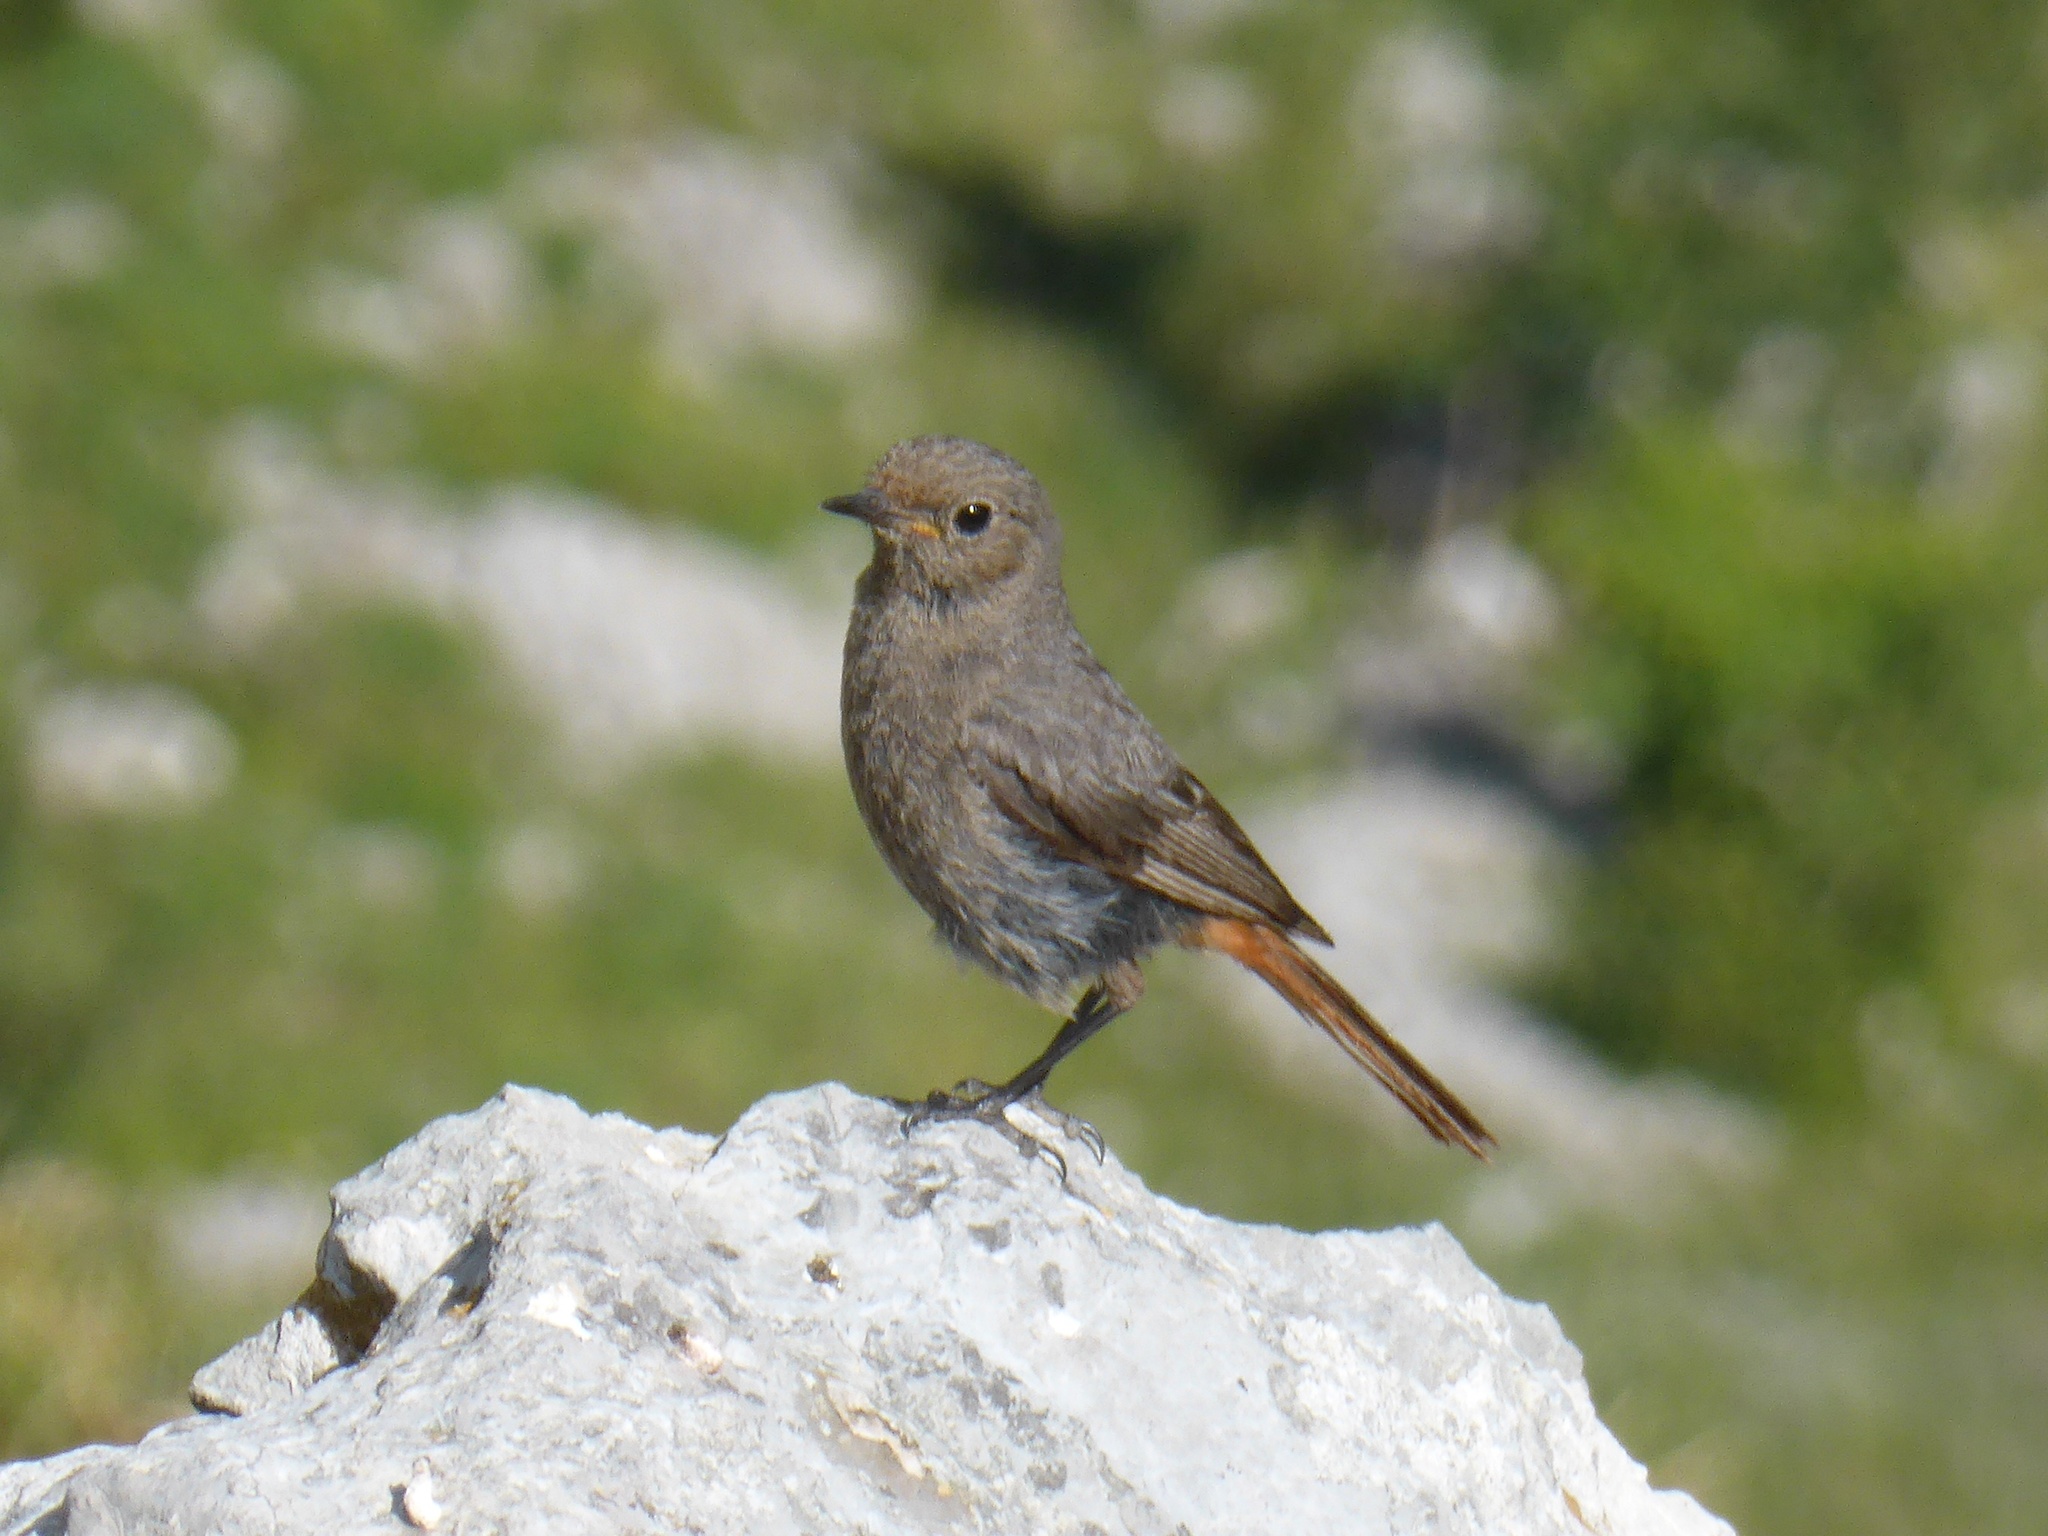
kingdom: Animalia
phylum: Chordata
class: Aves
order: Passeriformes
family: Muscicapidae
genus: Phoenicurus
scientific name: Phoenicurus ochruros
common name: Black redstart
